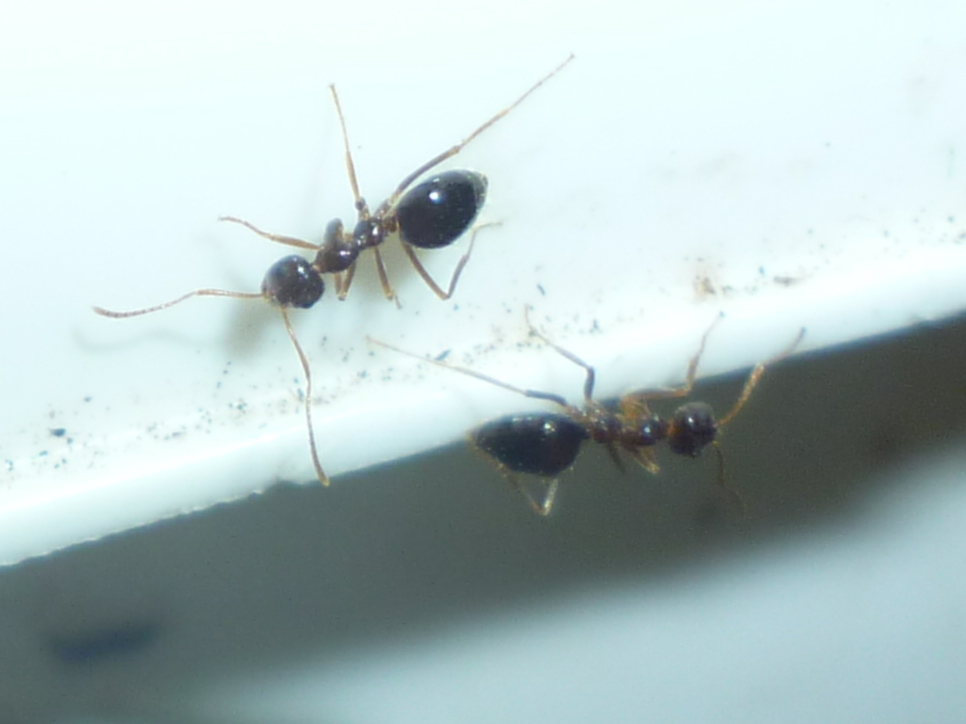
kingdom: Animalia
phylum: Arthropoda
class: Insecta
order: Hymenoptera
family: Formicidae
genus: Prenolepis
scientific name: Prenolepis imparis
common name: Small honey ant
